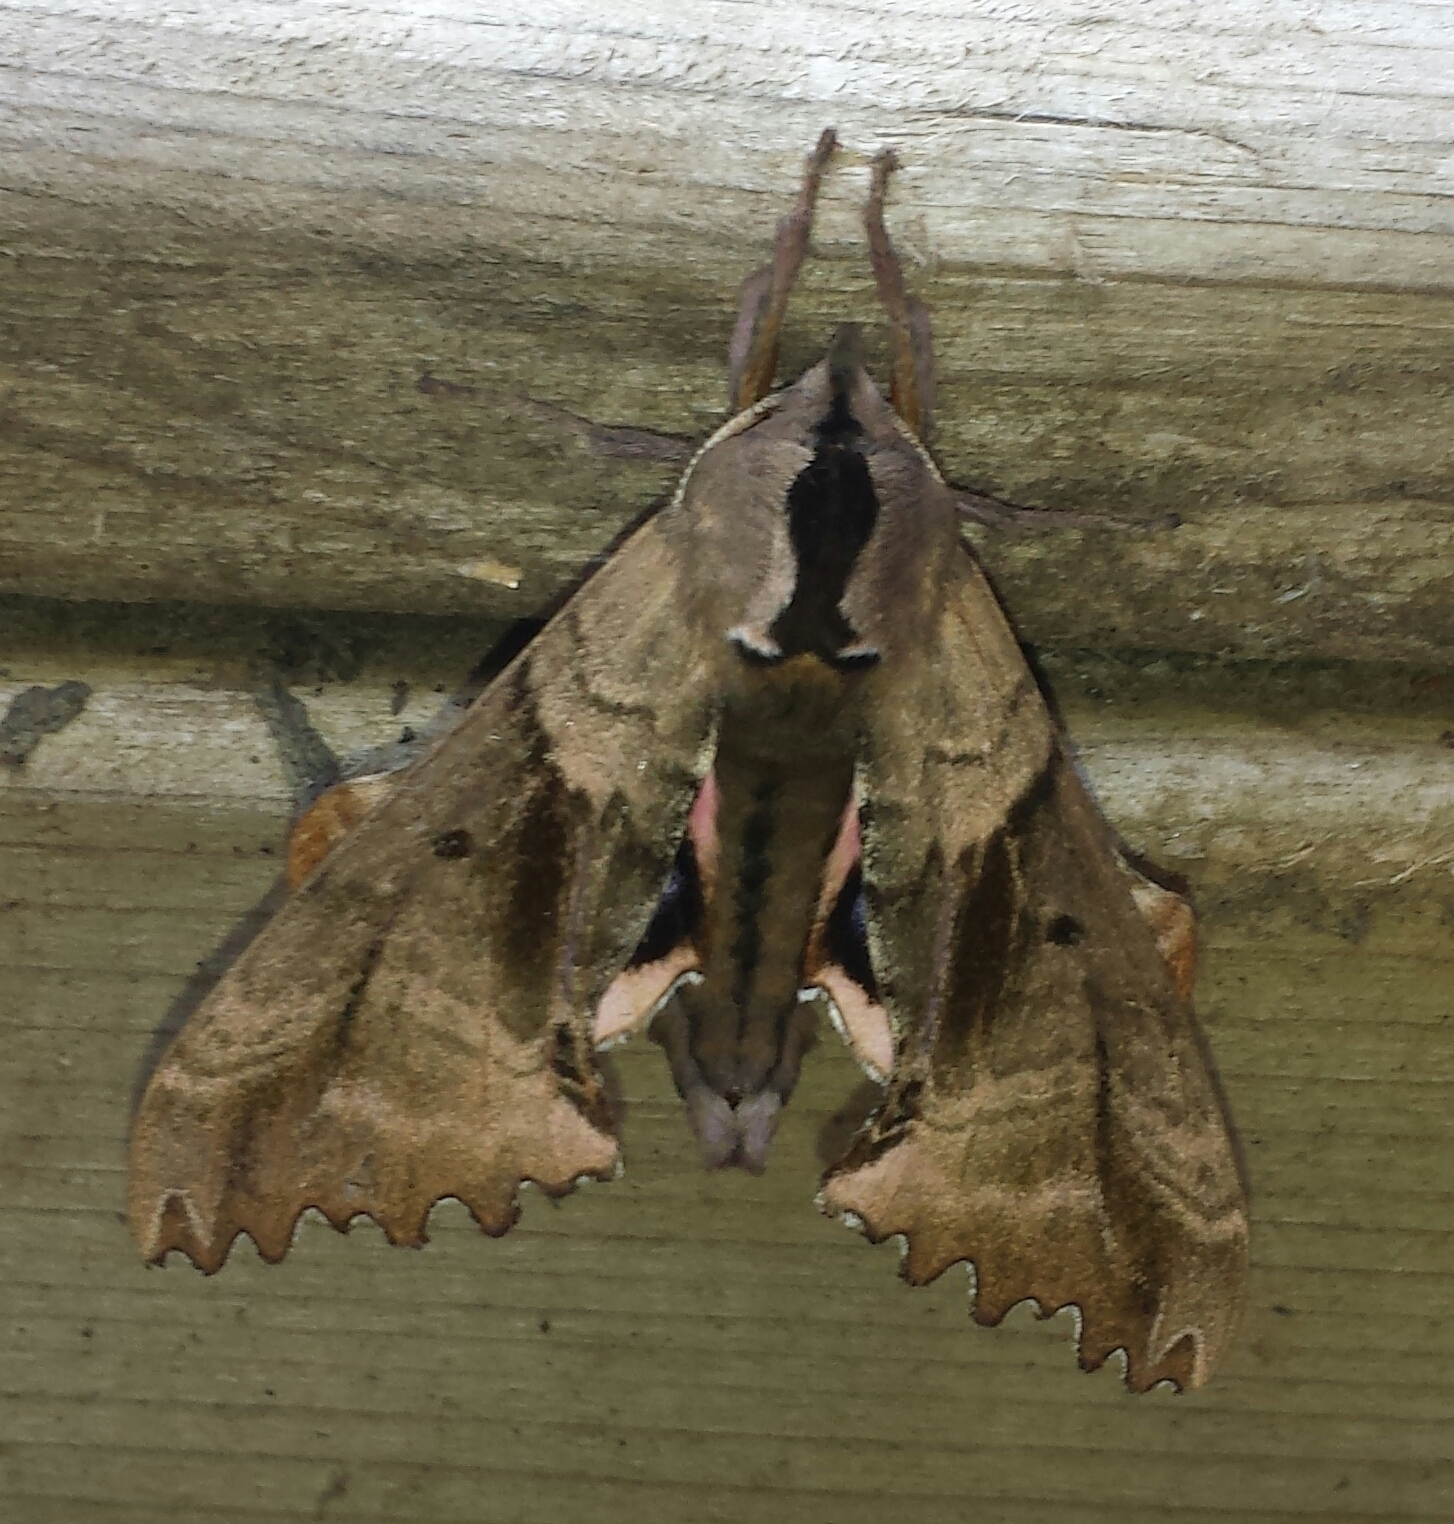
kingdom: Animalia
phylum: Arthropoda
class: Insecta
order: Lepidoptera
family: Sphingidae
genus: Paonias
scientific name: Paonias excaecata
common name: Blind-eyed sphinx
